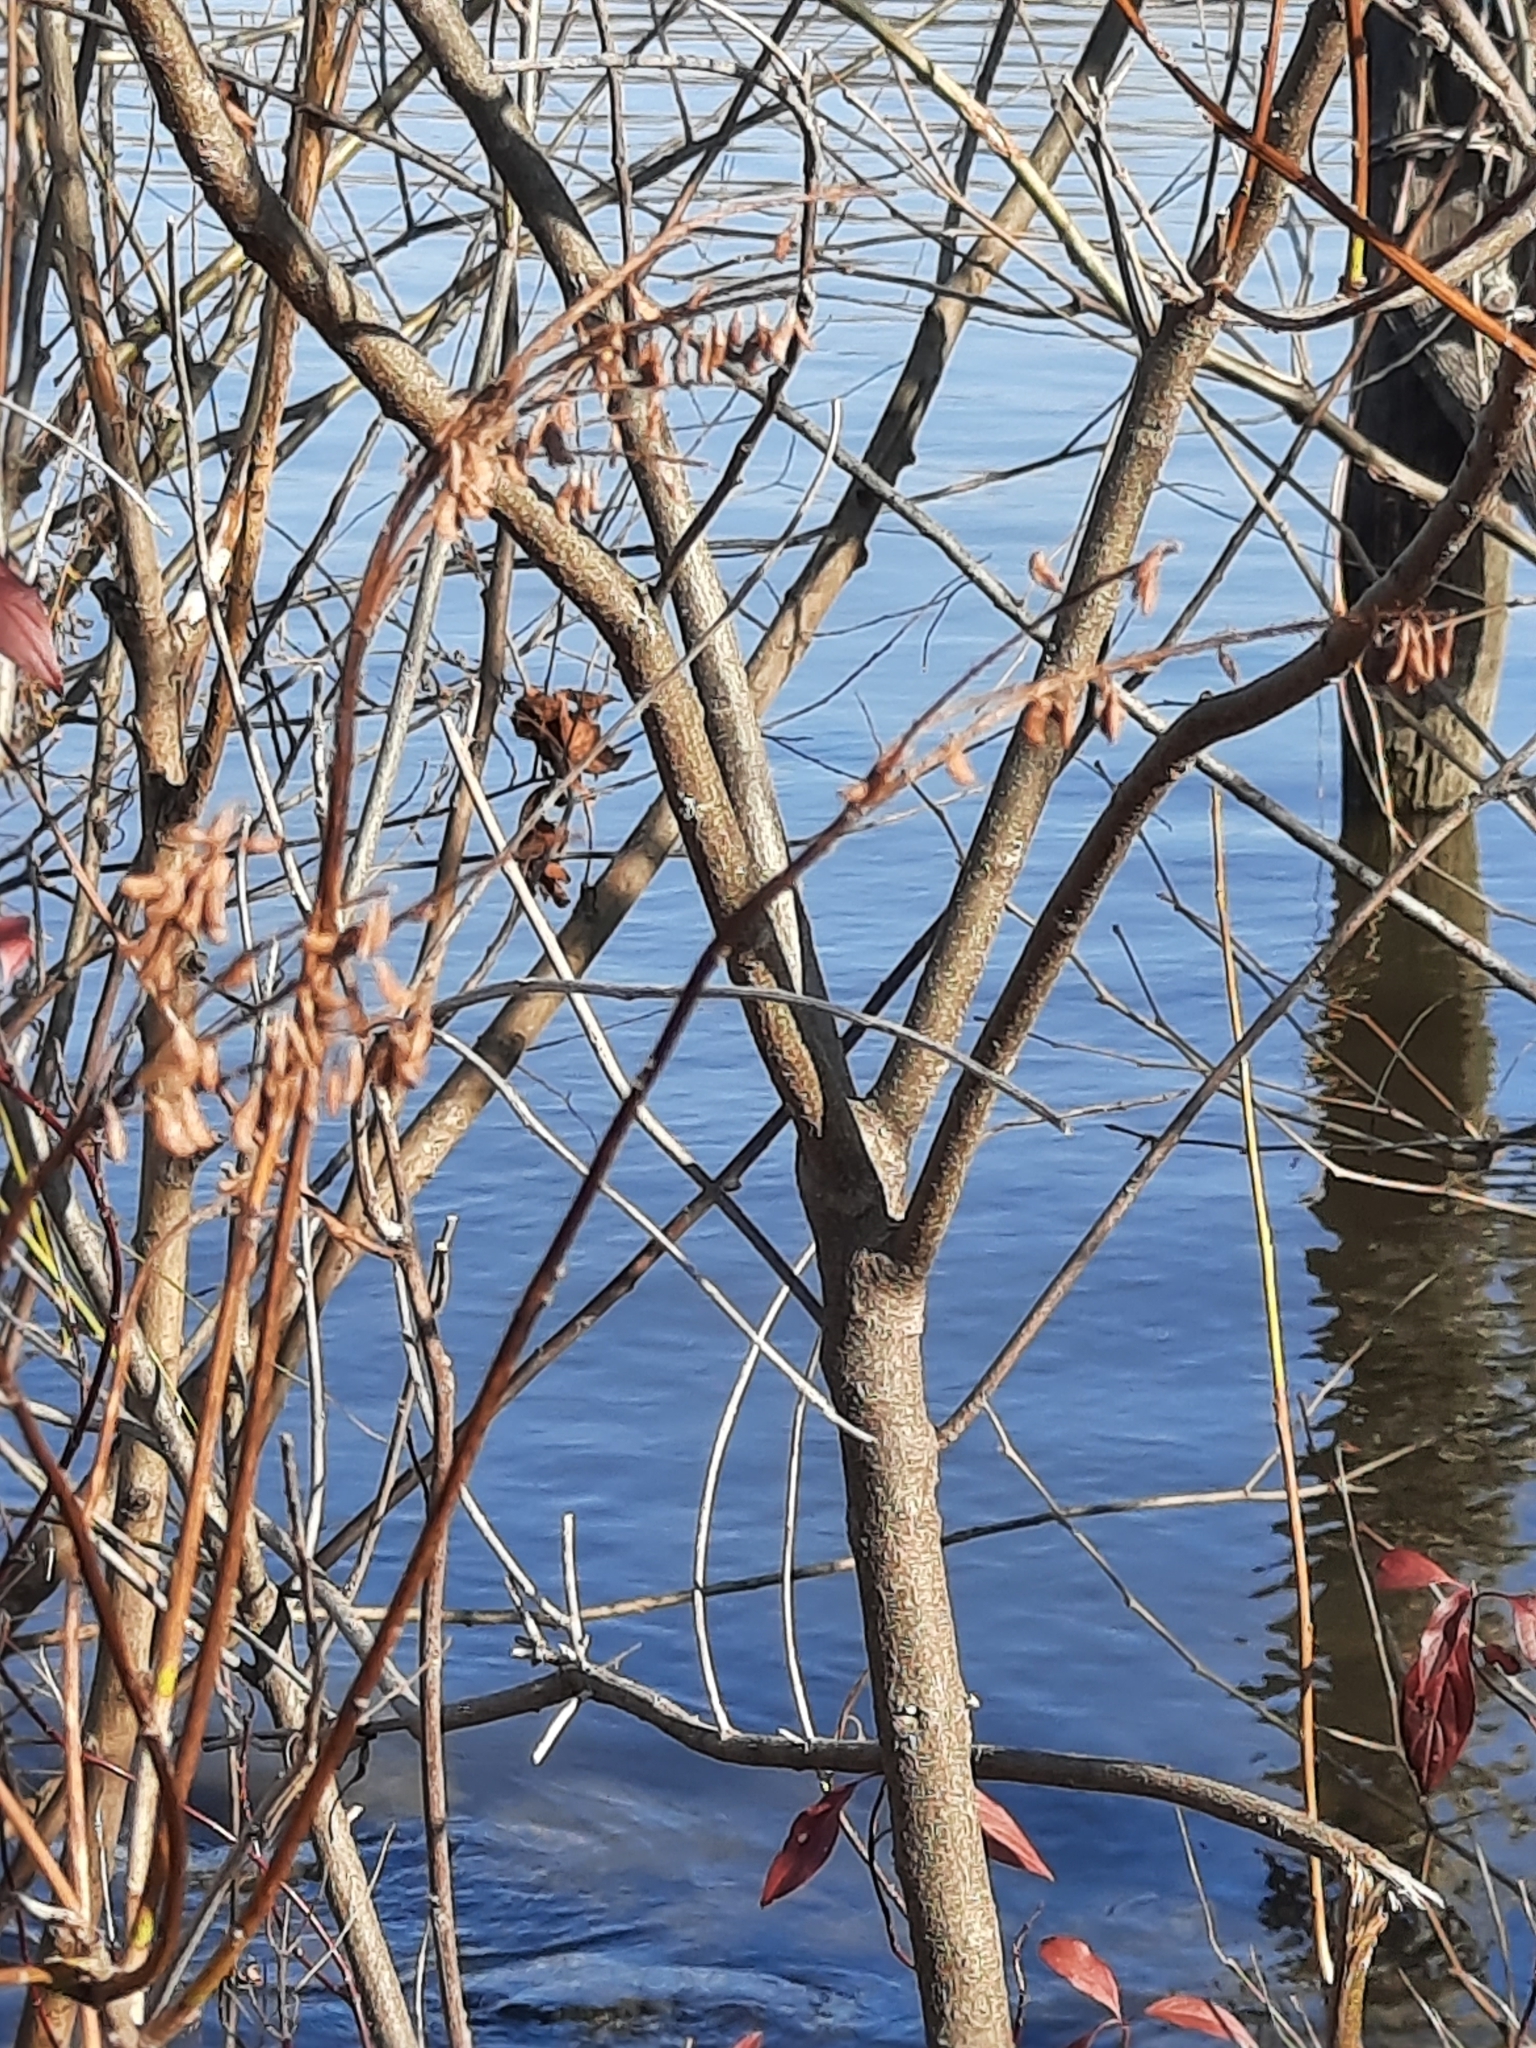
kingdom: Plantae
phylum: Tracheophyta
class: Magnoliopsida
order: Fabales
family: Fabaceae
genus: Amorpha
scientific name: Amorpha fruticosa
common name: False indigo
